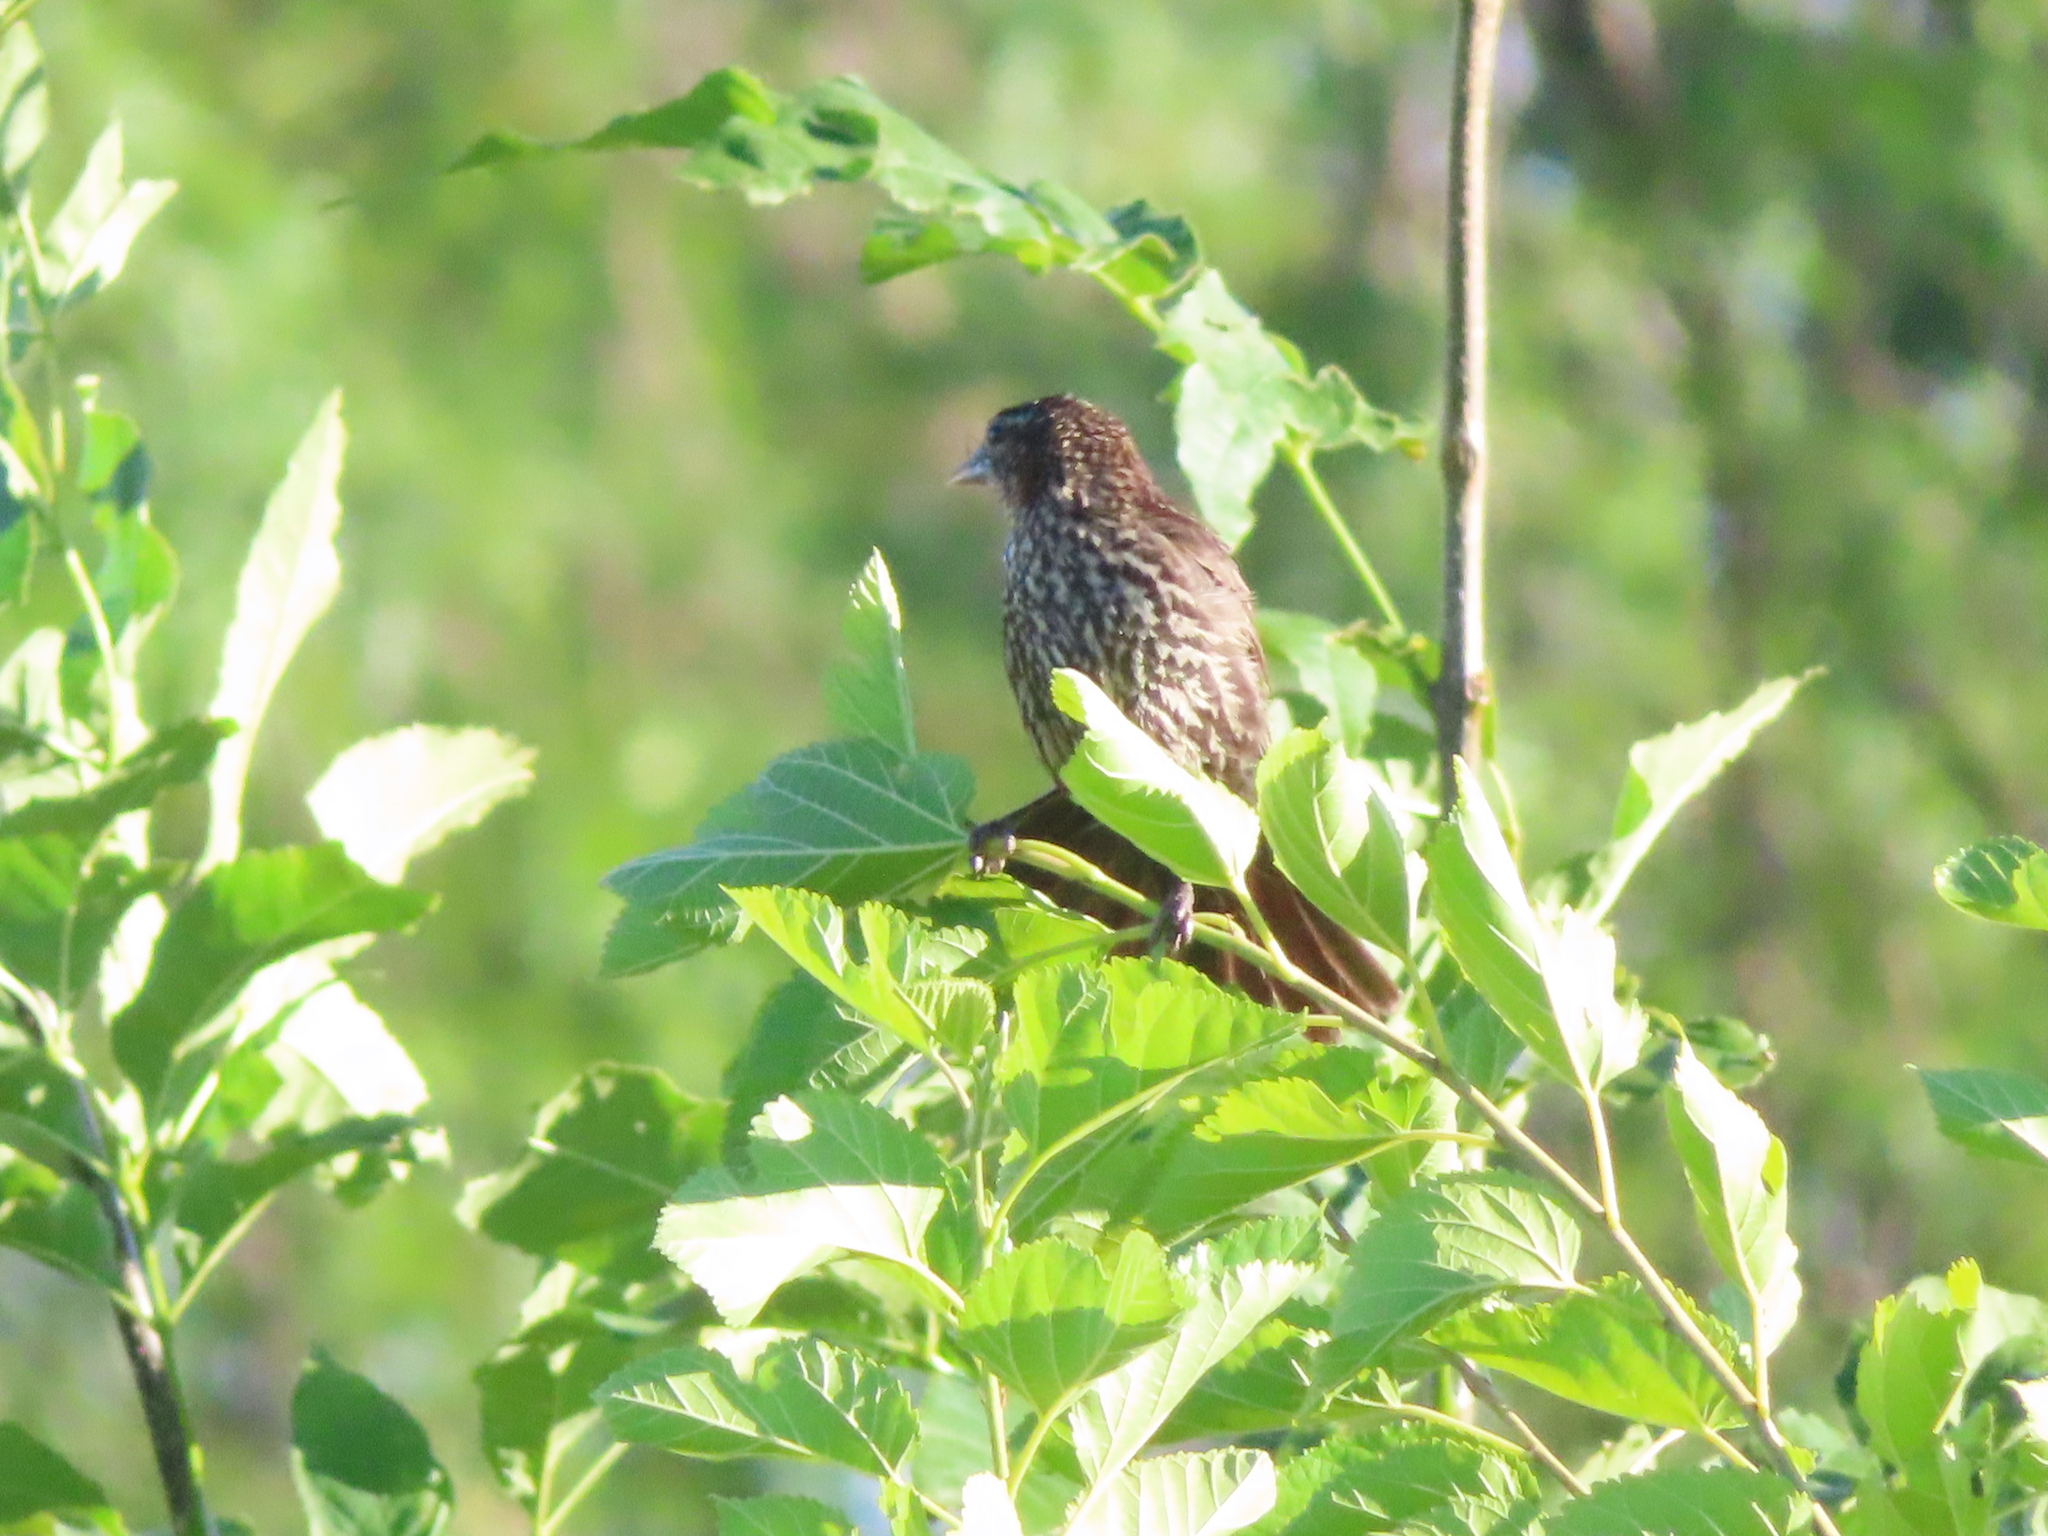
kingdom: Animalia
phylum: Chordata
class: Aves
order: Passeriformes
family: Icteridae
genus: Agelaius
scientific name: Agelaius phoeniceus
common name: Red-winged blackbird
